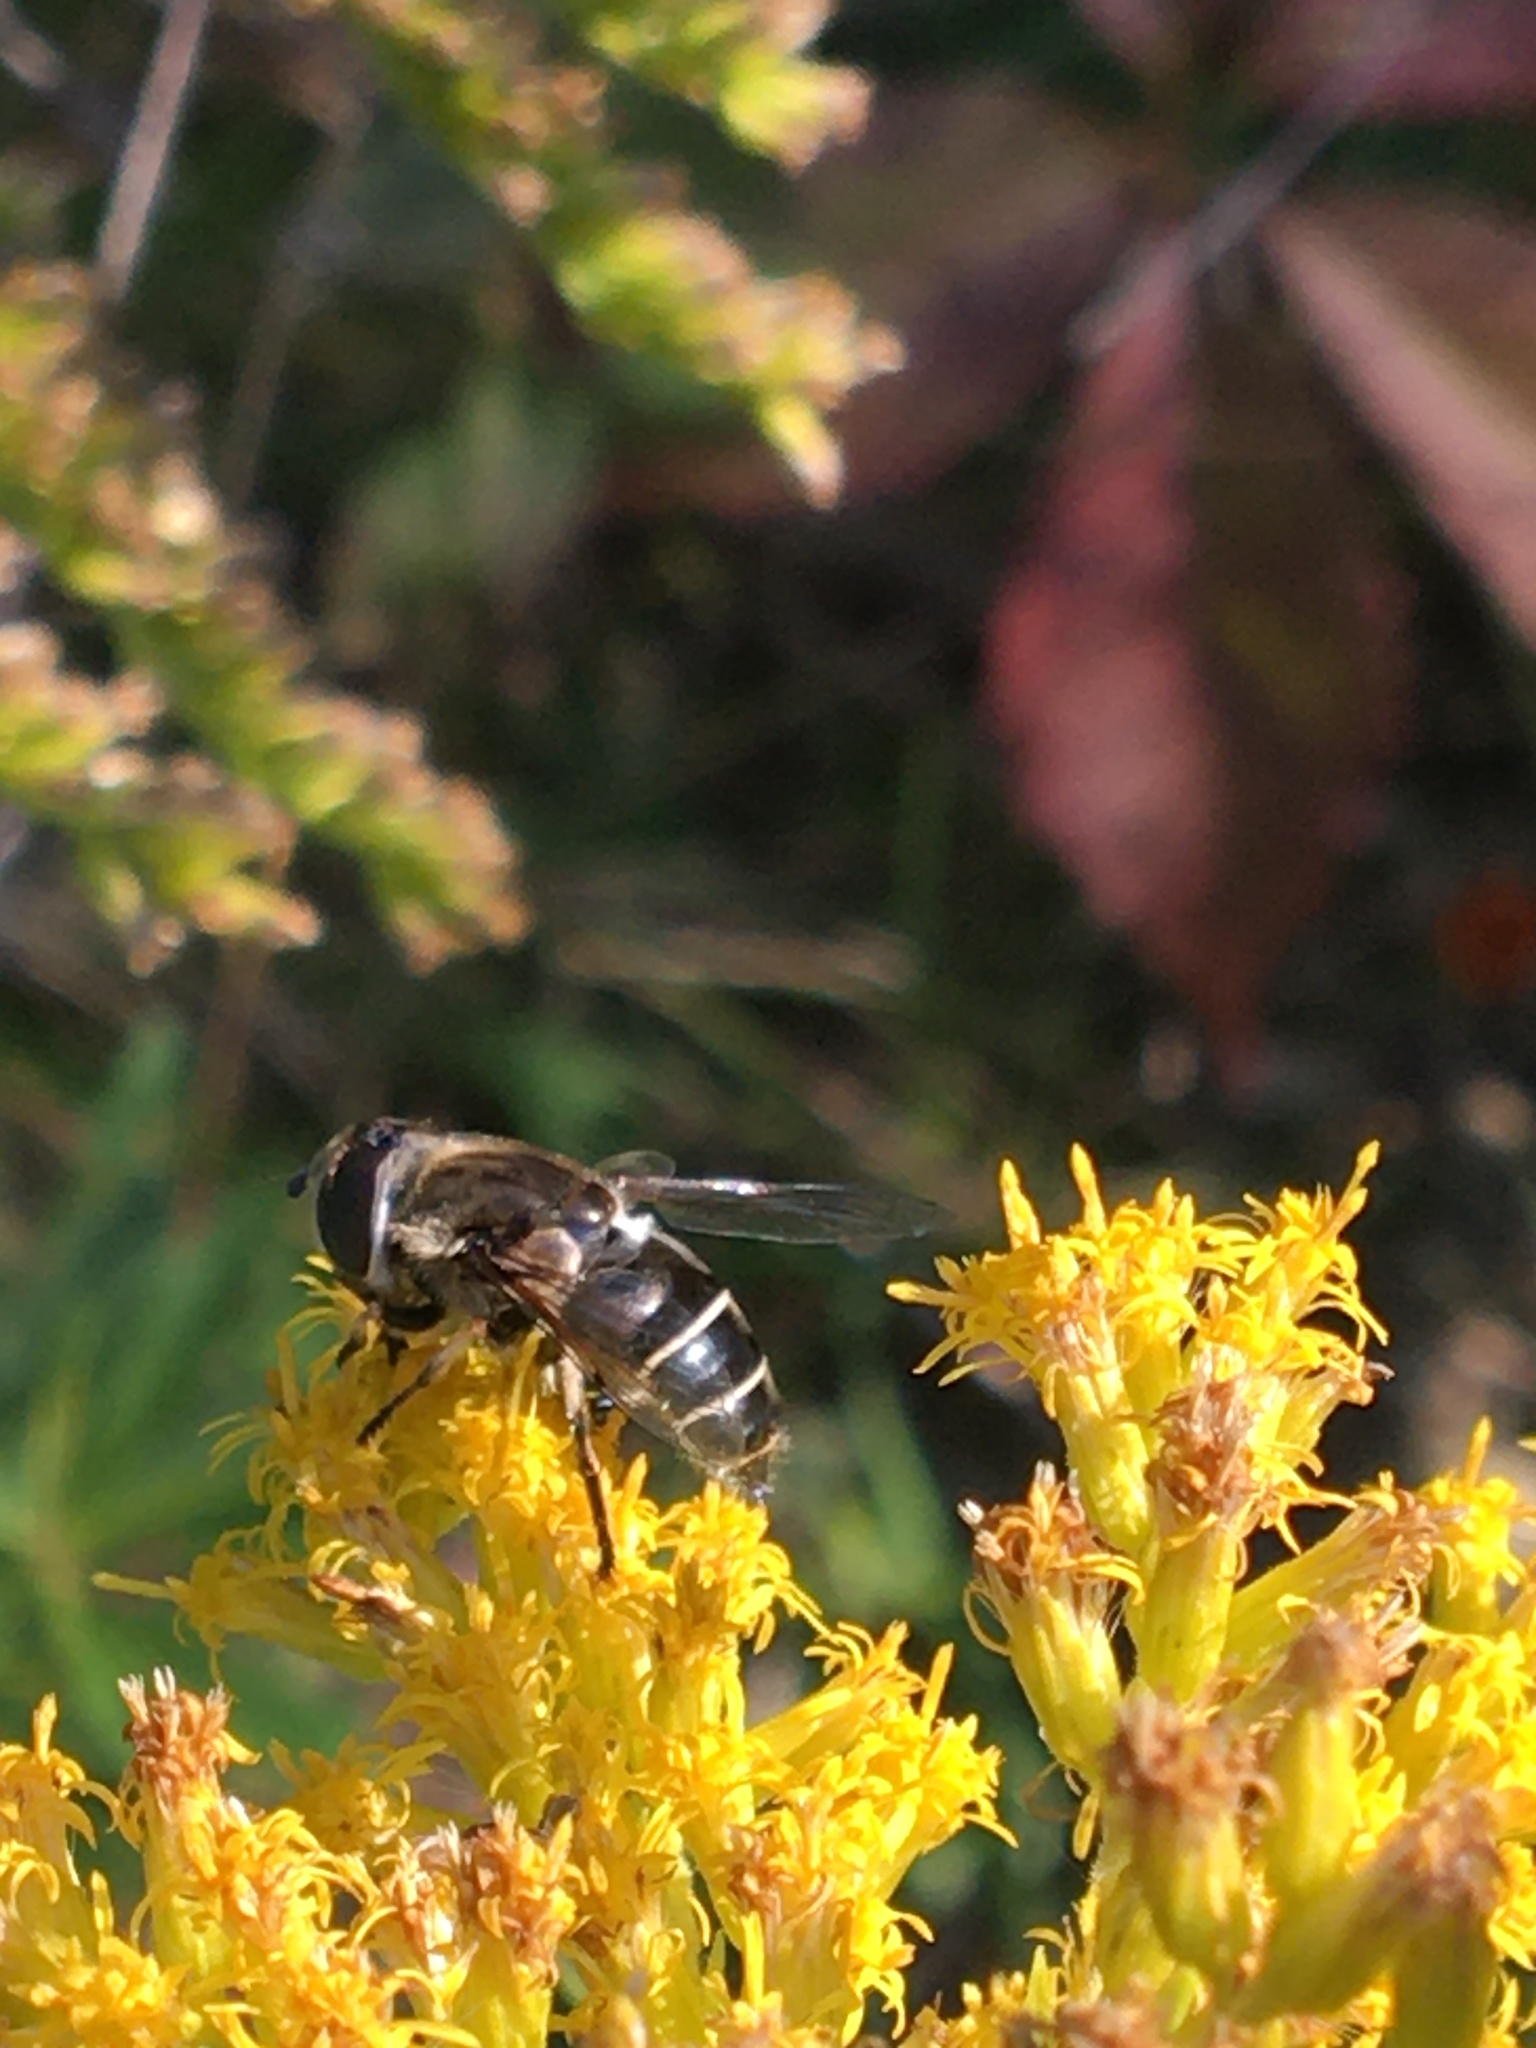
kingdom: Animalia
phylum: Arthropoda
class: Insecta
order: Diptera
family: Syrphidae
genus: Eristalis
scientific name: Eristalis dimidiata
